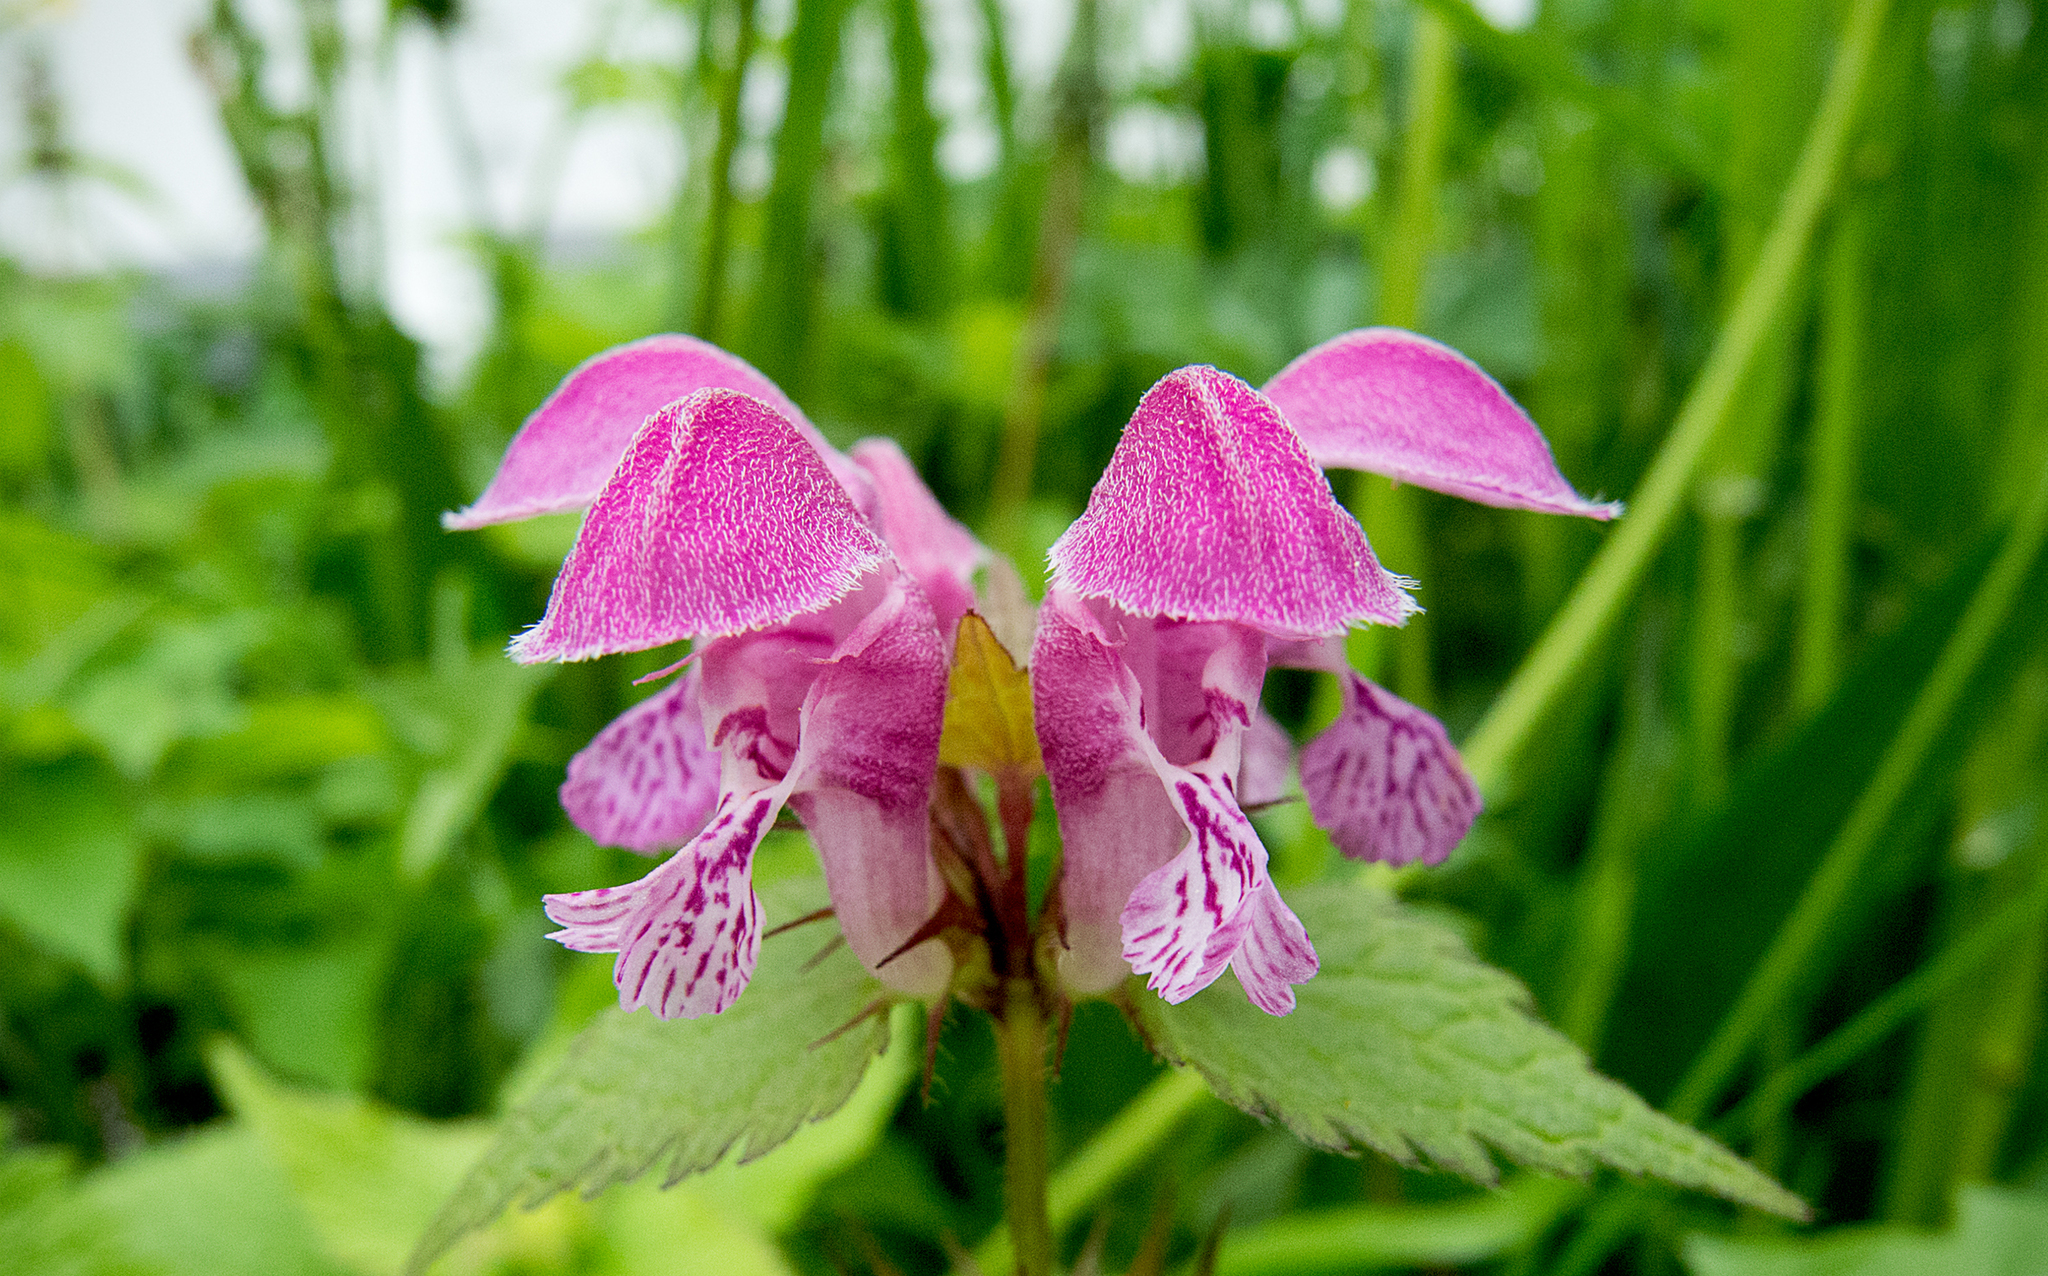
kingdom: Plantae
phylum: Tracheophyta
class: Magnoliopsida
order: Lamiales
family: Lamiaceae
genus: Lamium
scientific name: Lamium maculatum
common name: Spotted dead-nettle
